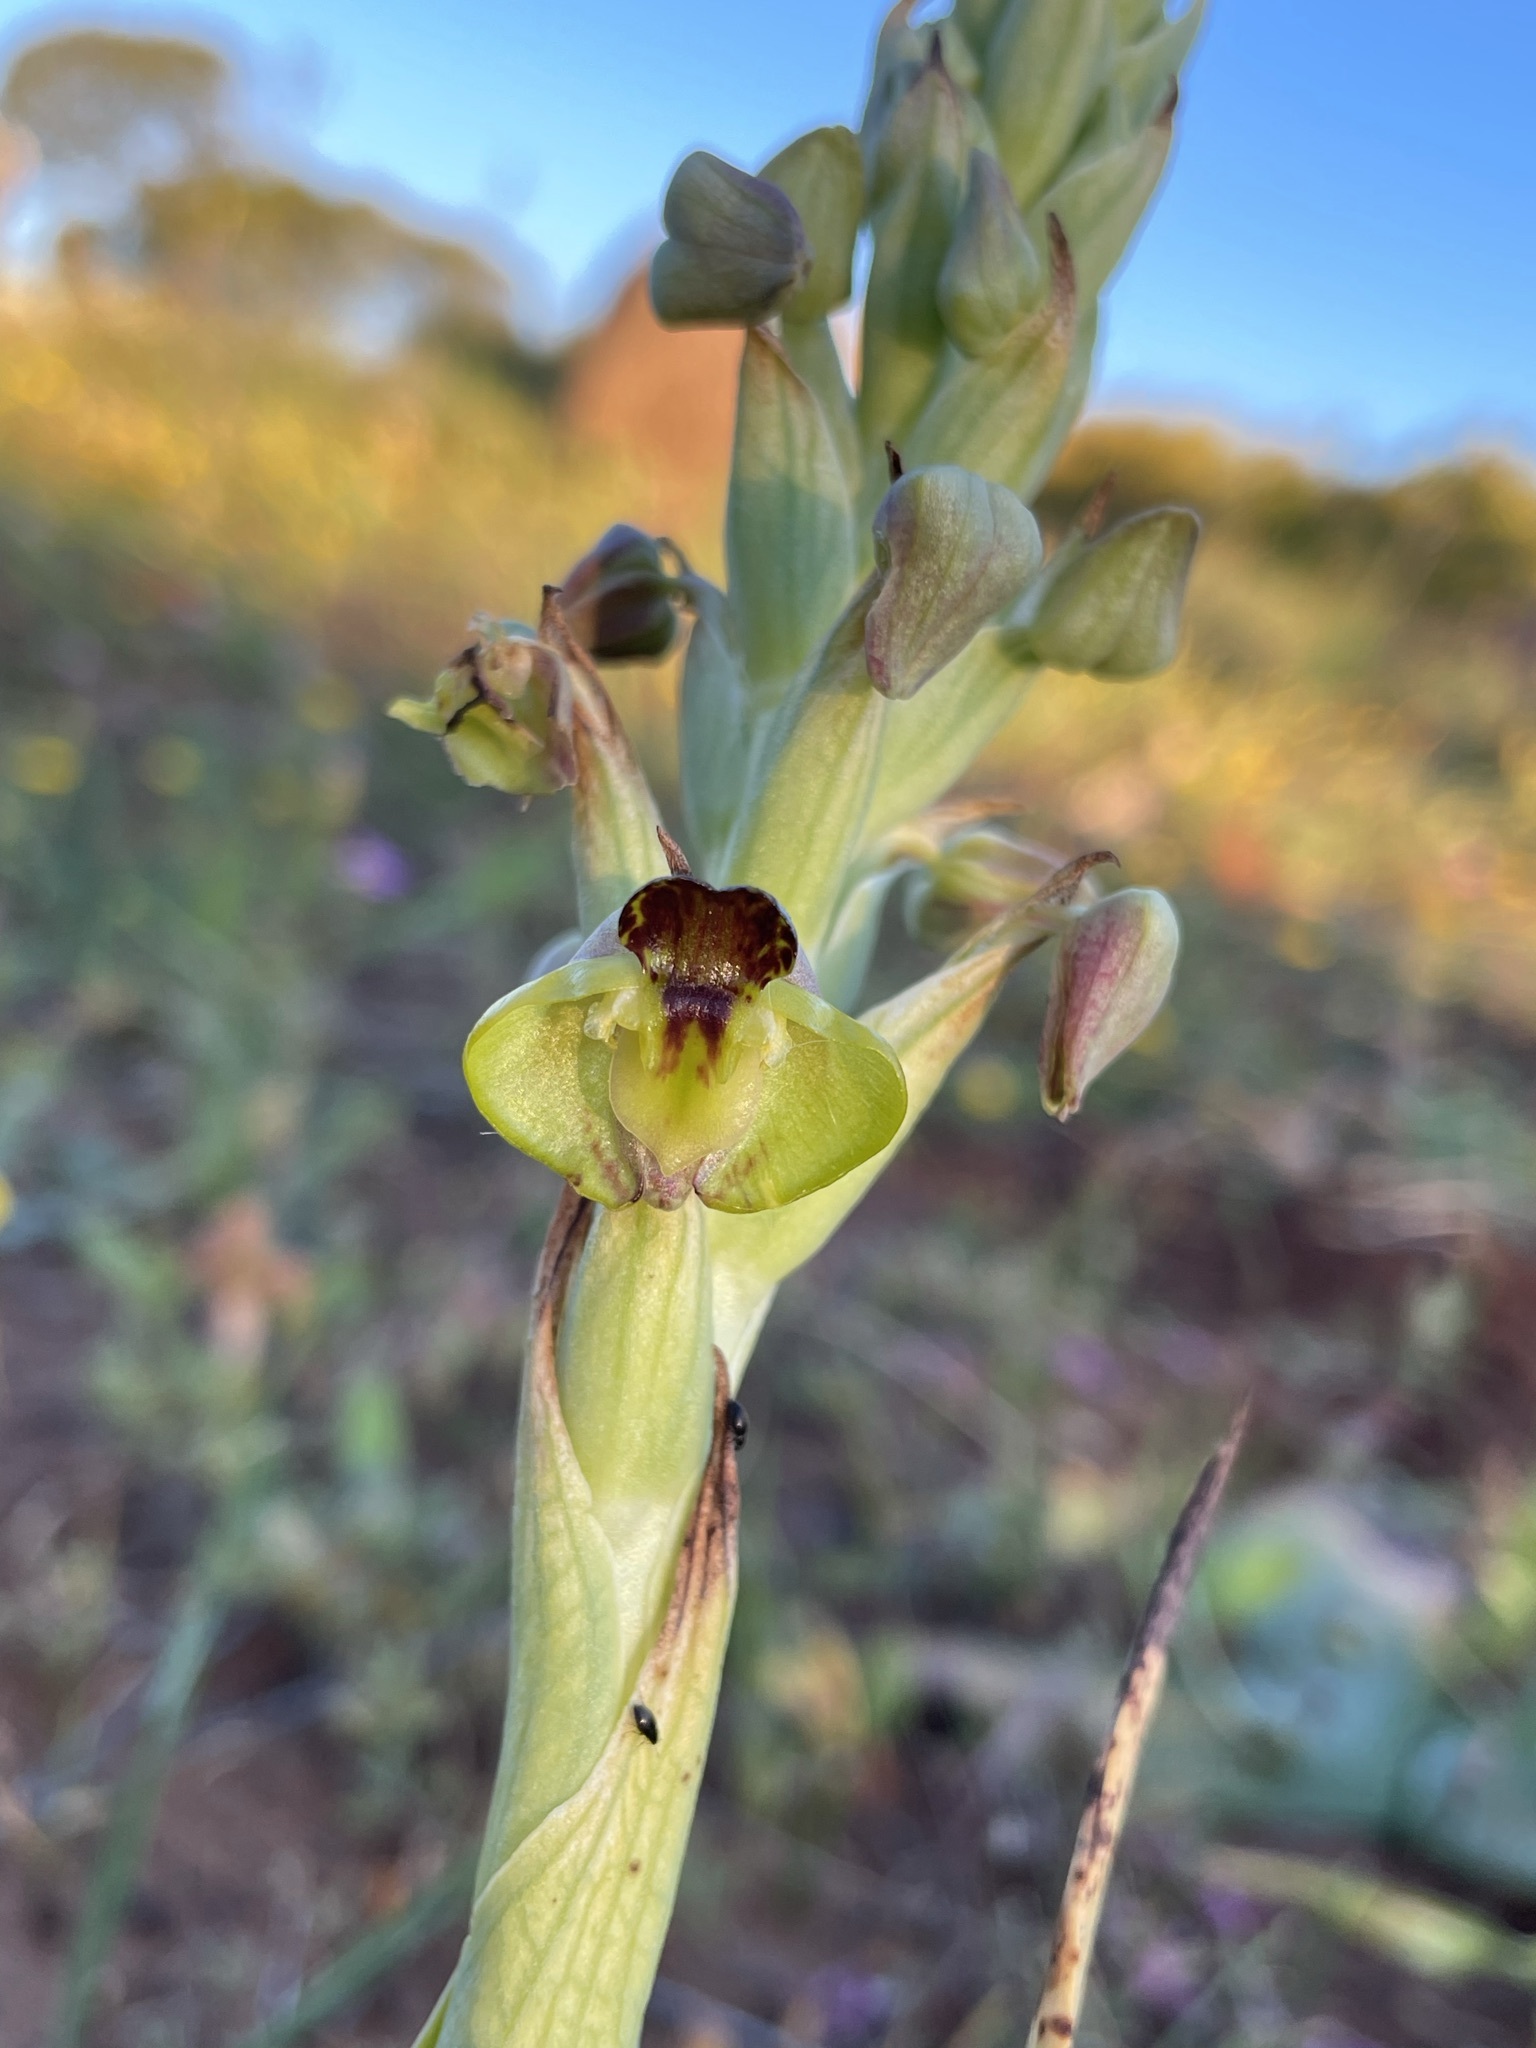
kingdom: Plantae
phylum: Tracheophyta
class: Liliopsida
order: Asparagales
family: Orchidaceae
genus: Pterygodium
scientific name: Pterygodium hallii
